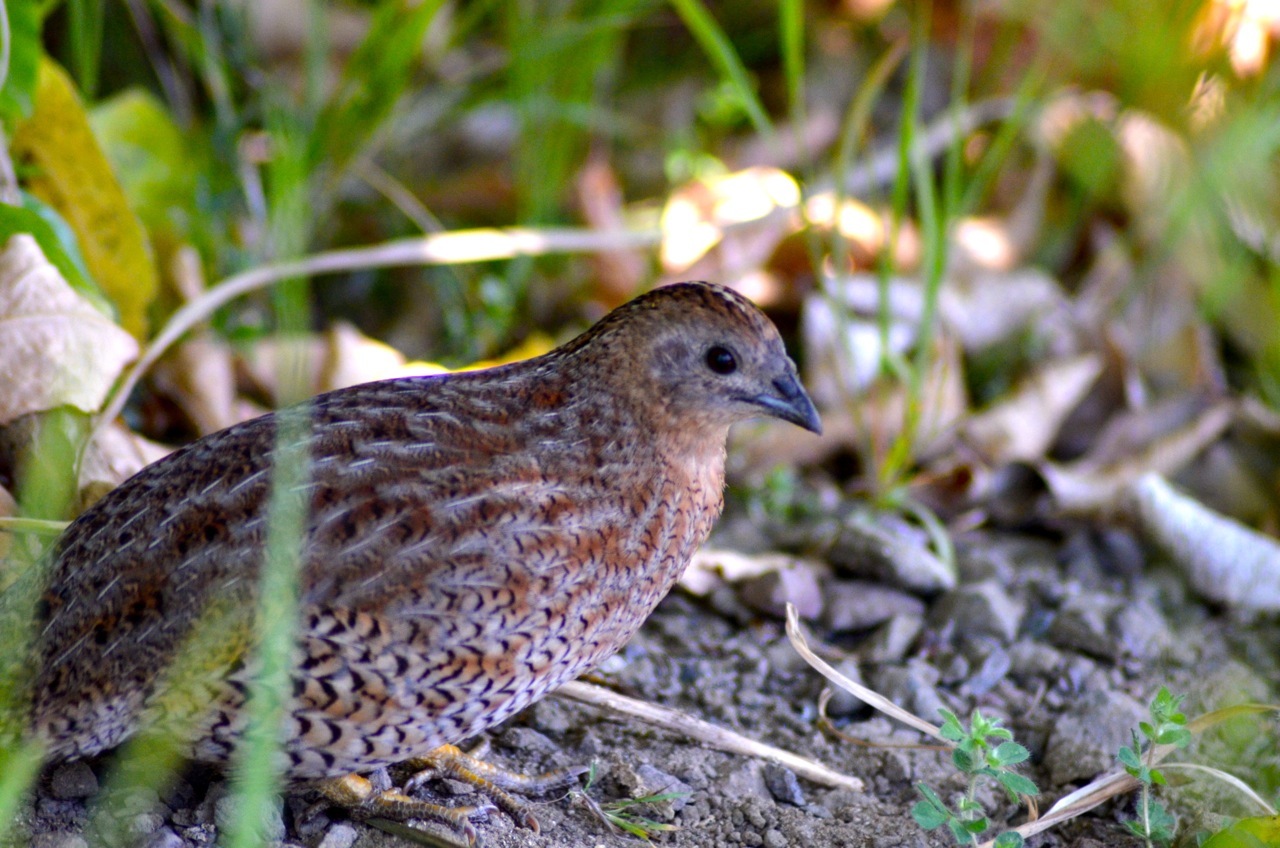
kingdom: Animalia
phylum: Chordata
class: Aves
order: Galliformes
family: Phasianidae
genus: Synoicus
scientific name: Synoicus ypsilophorus
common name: Brown quail
